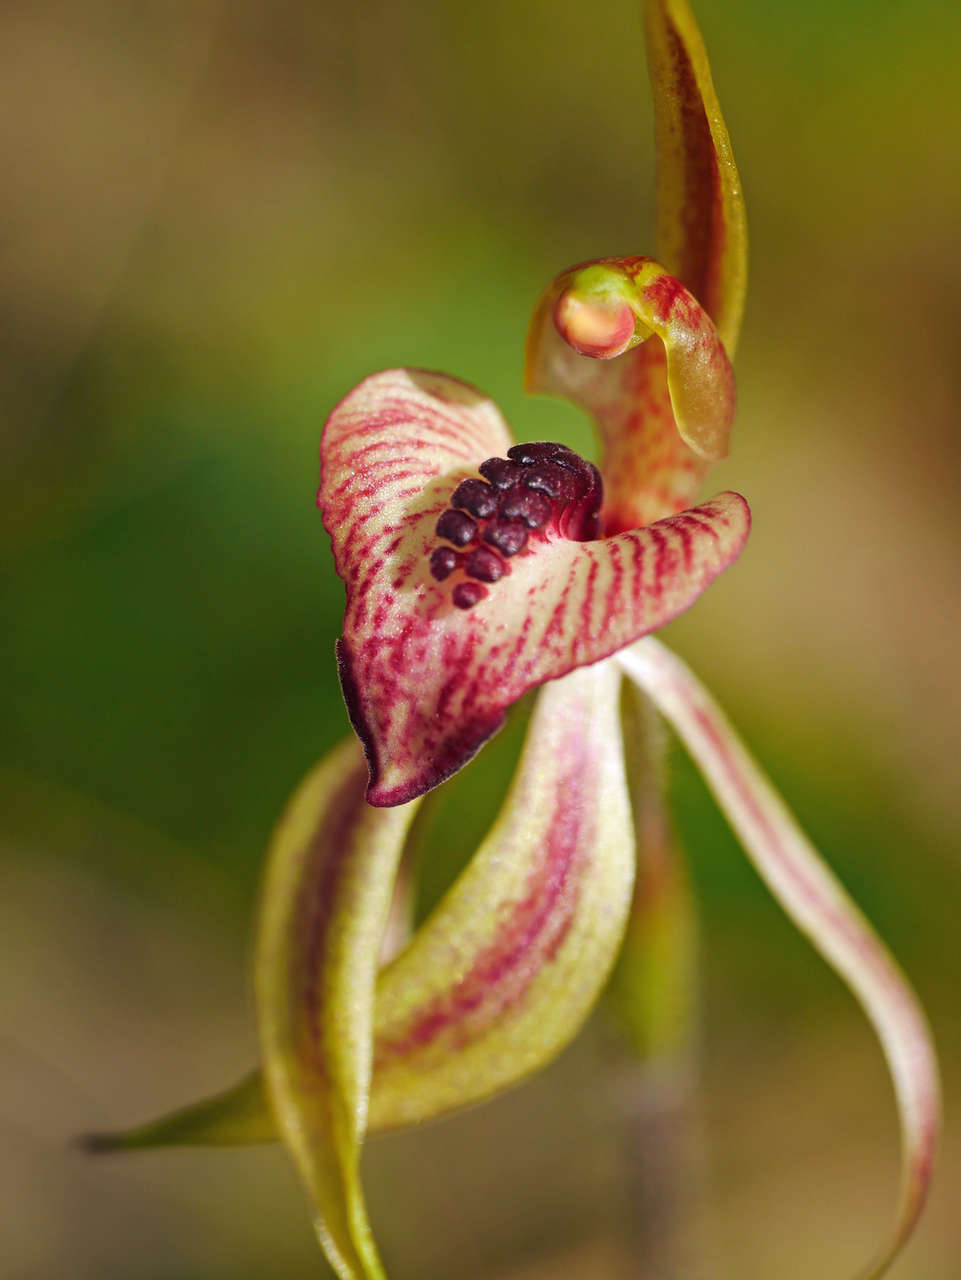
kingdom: Plantae
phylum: Tracheophyta
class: Liliopsida
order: Asparagales
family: Orchidaceae
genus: Caladenia
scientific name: Caladenia cardiochila
